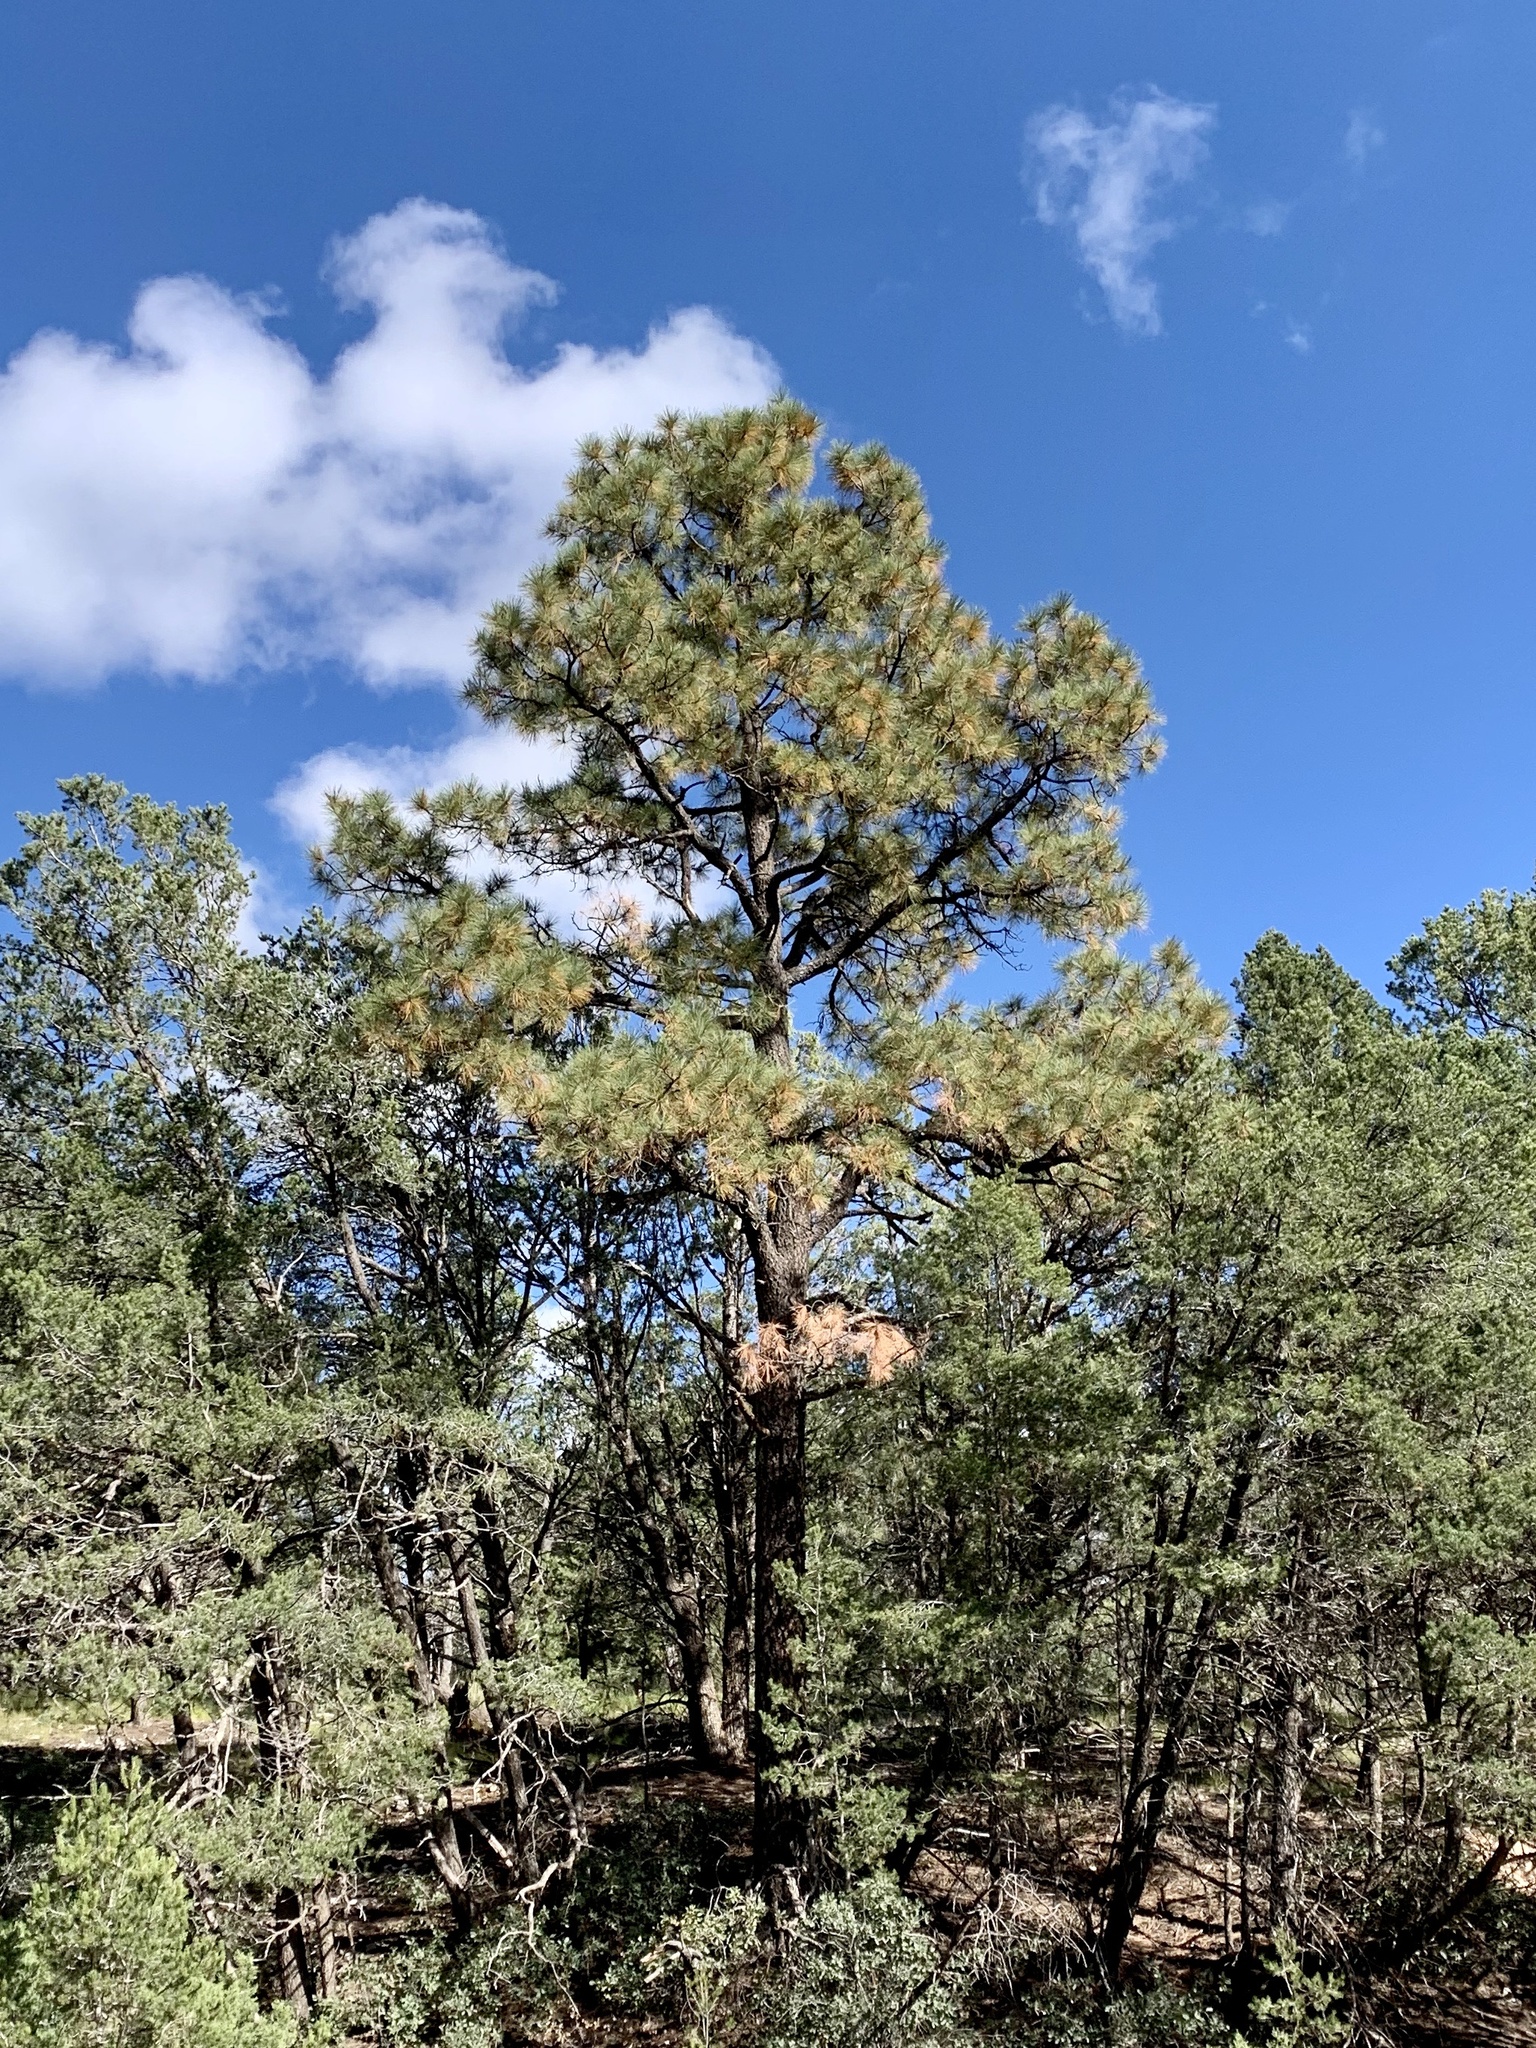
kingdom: Plantae
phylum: Tracheophyta
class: Pinopsida
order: Pinales
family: Pinaceae
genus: Pinus
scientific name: Pinus ponderosa
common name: Western yellow-pine
